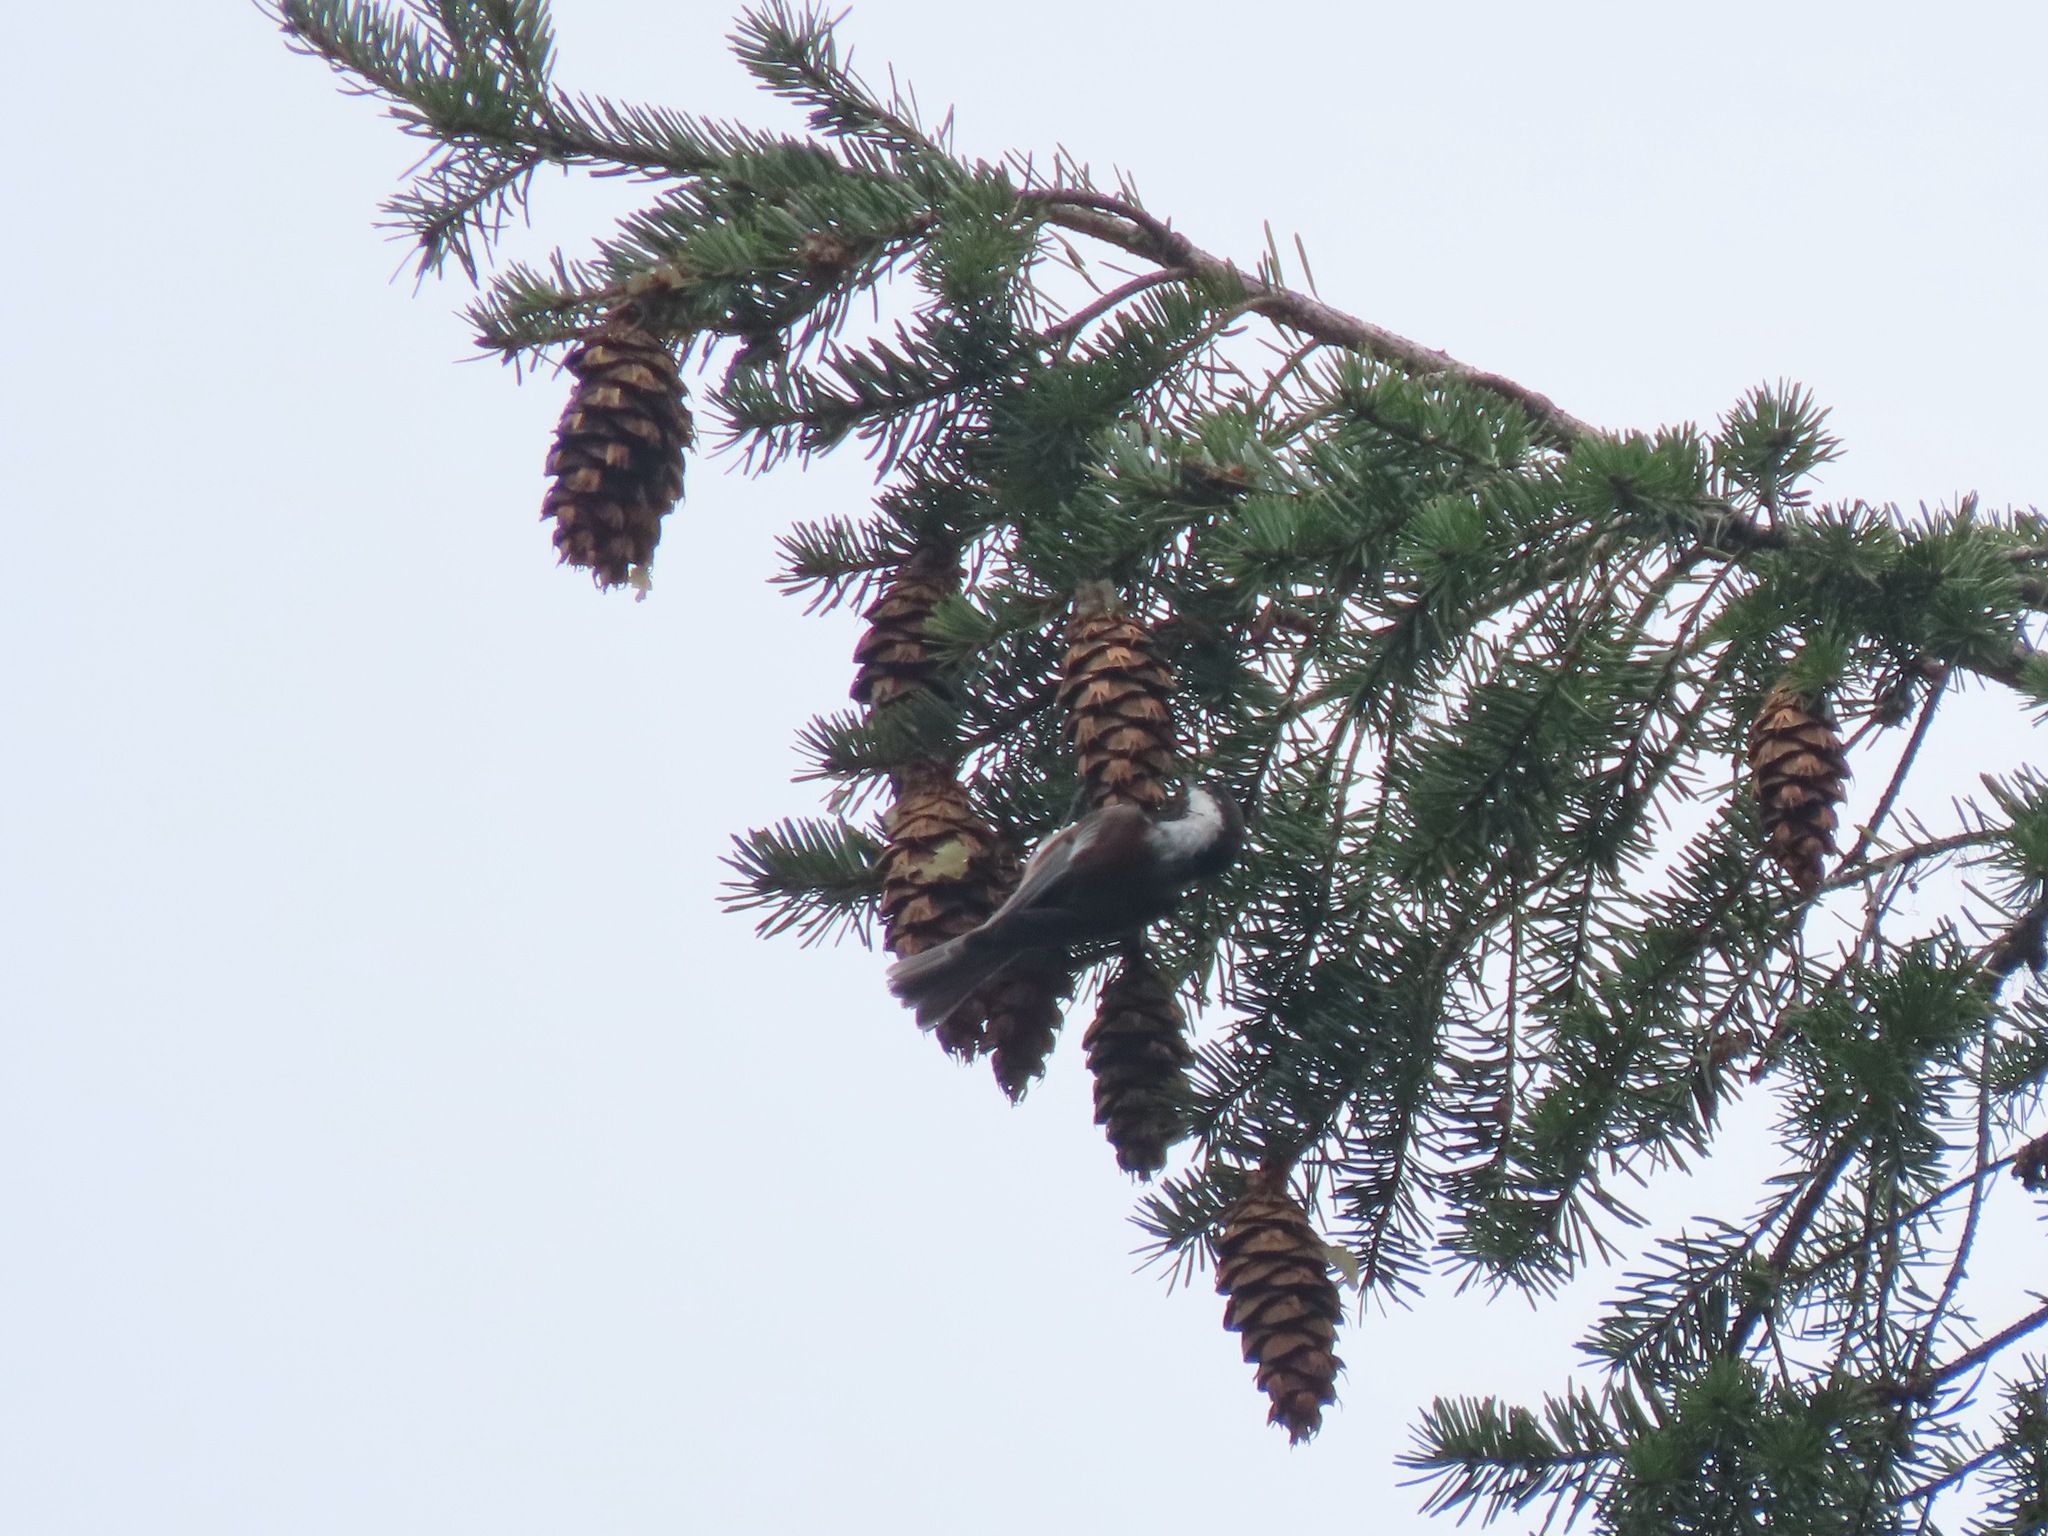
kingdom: Animalia
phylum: Chordata
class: Aves
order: Passeriformes
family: Paridae
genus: Poecile
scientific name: Poecile rufescens
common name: Chestnut-backed chickadee
